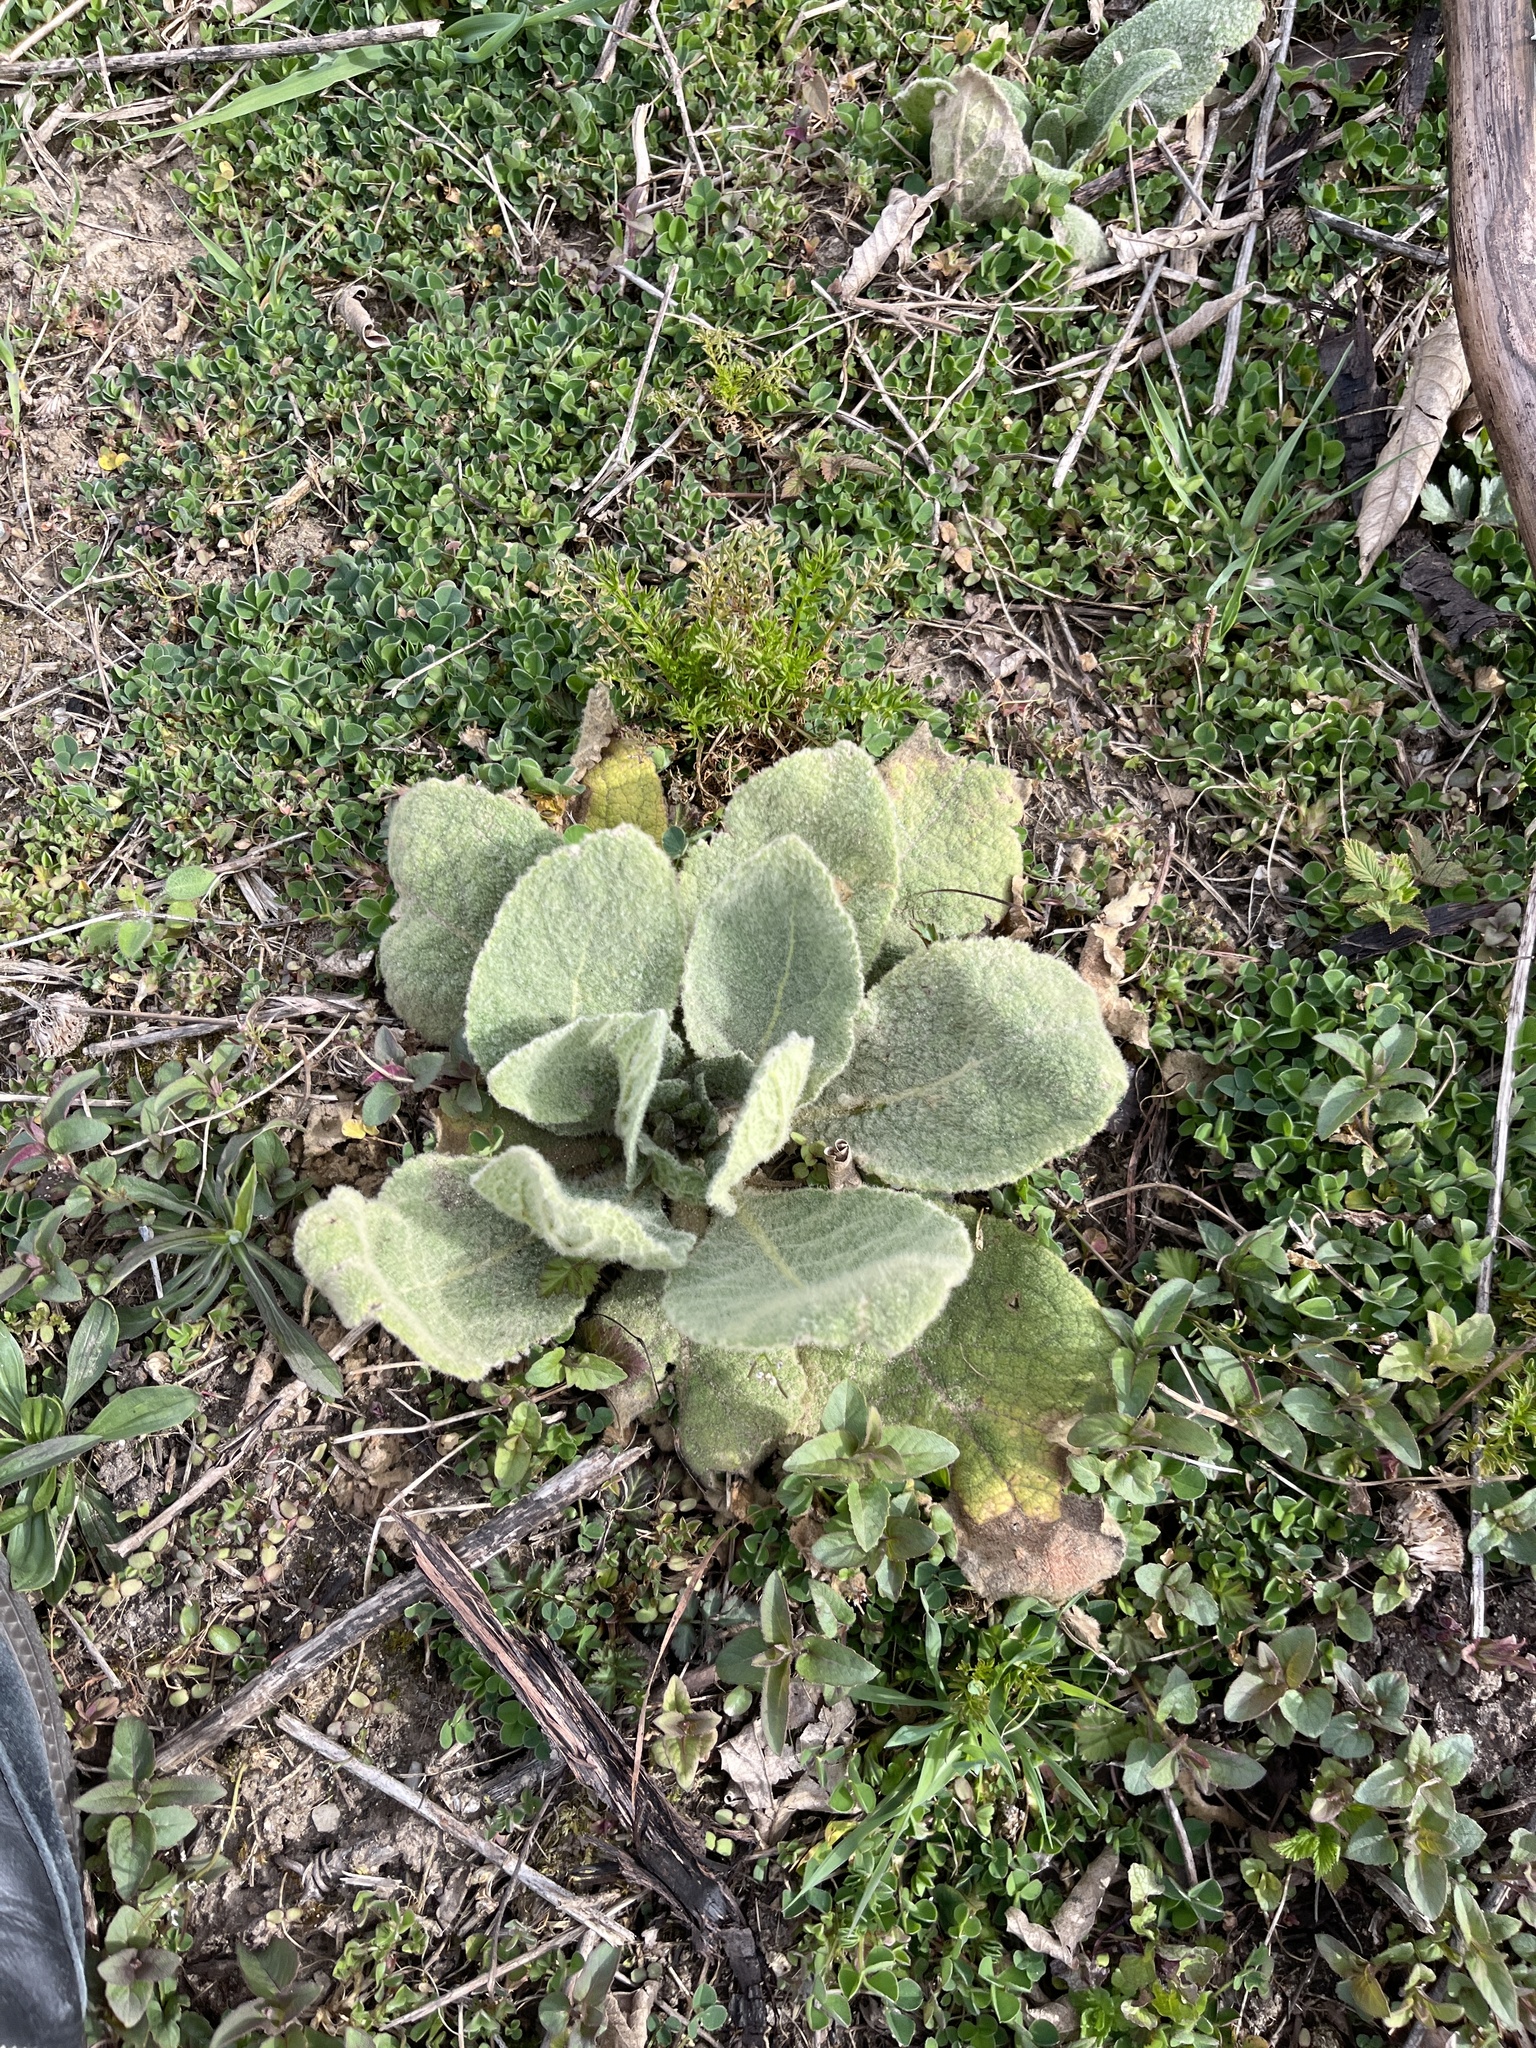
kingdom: Plantae
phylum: Tracheophyta
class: Magnoliopsida
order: Lamiales
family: Scrophulariaceae
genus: Verbascum
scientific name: Verbascum thapsus
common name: Common mullein
